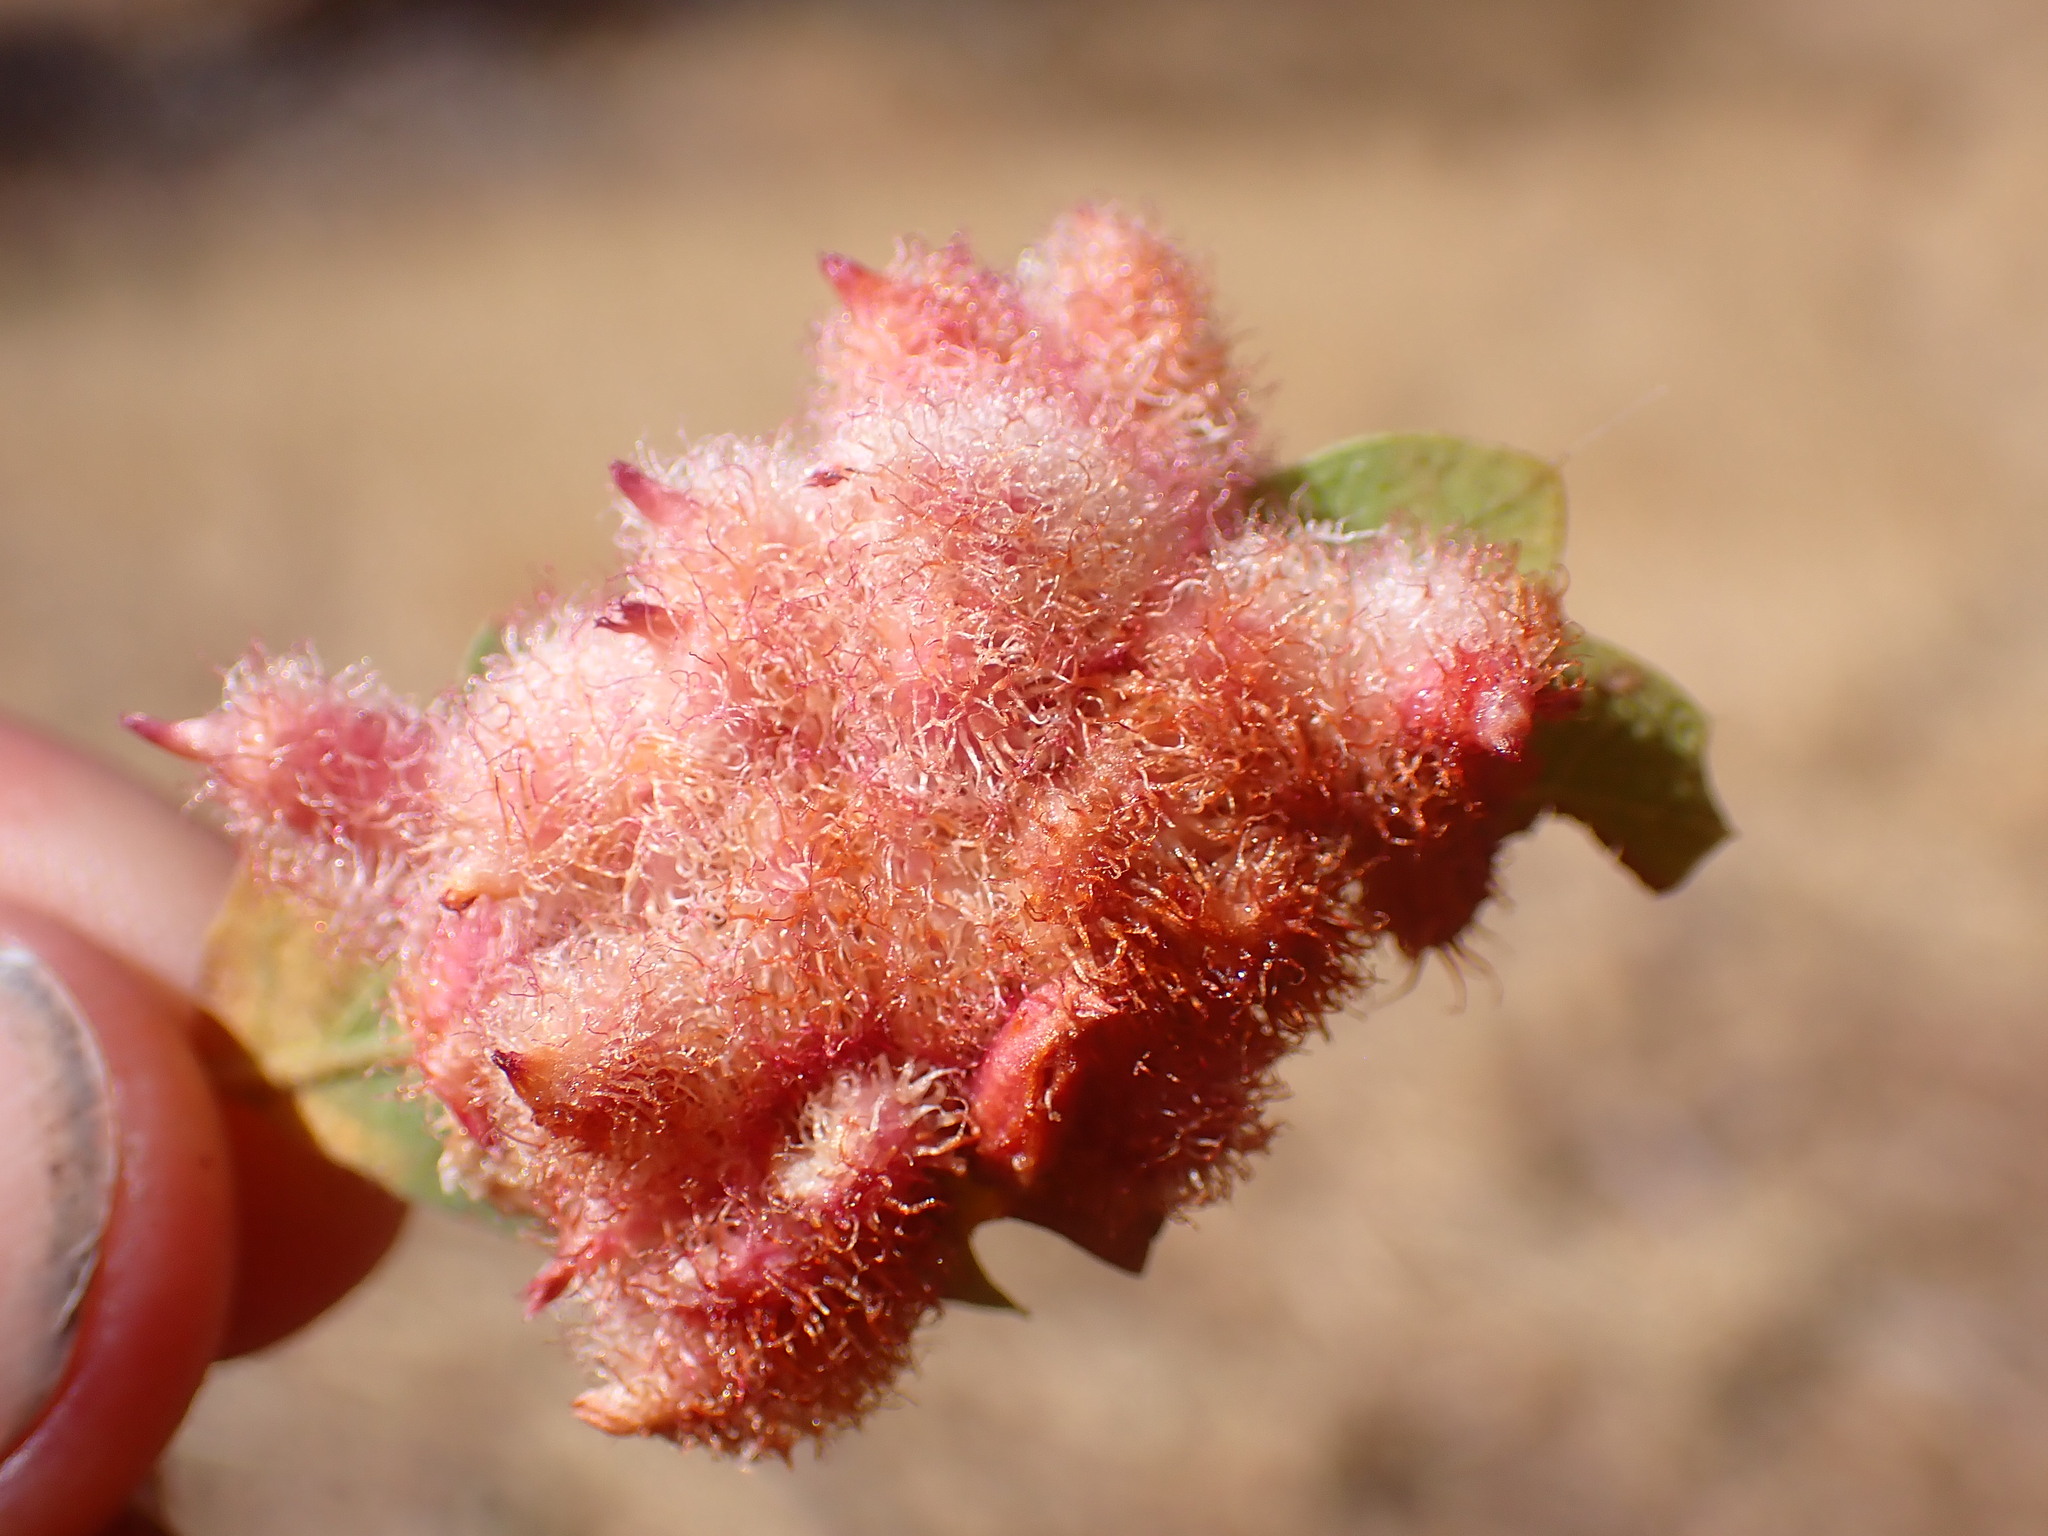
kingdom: Animalia
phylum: Arthropoda
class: Insecta
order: Hymenoptera
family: Cynipidae
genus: Andricus
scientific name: Andricus
